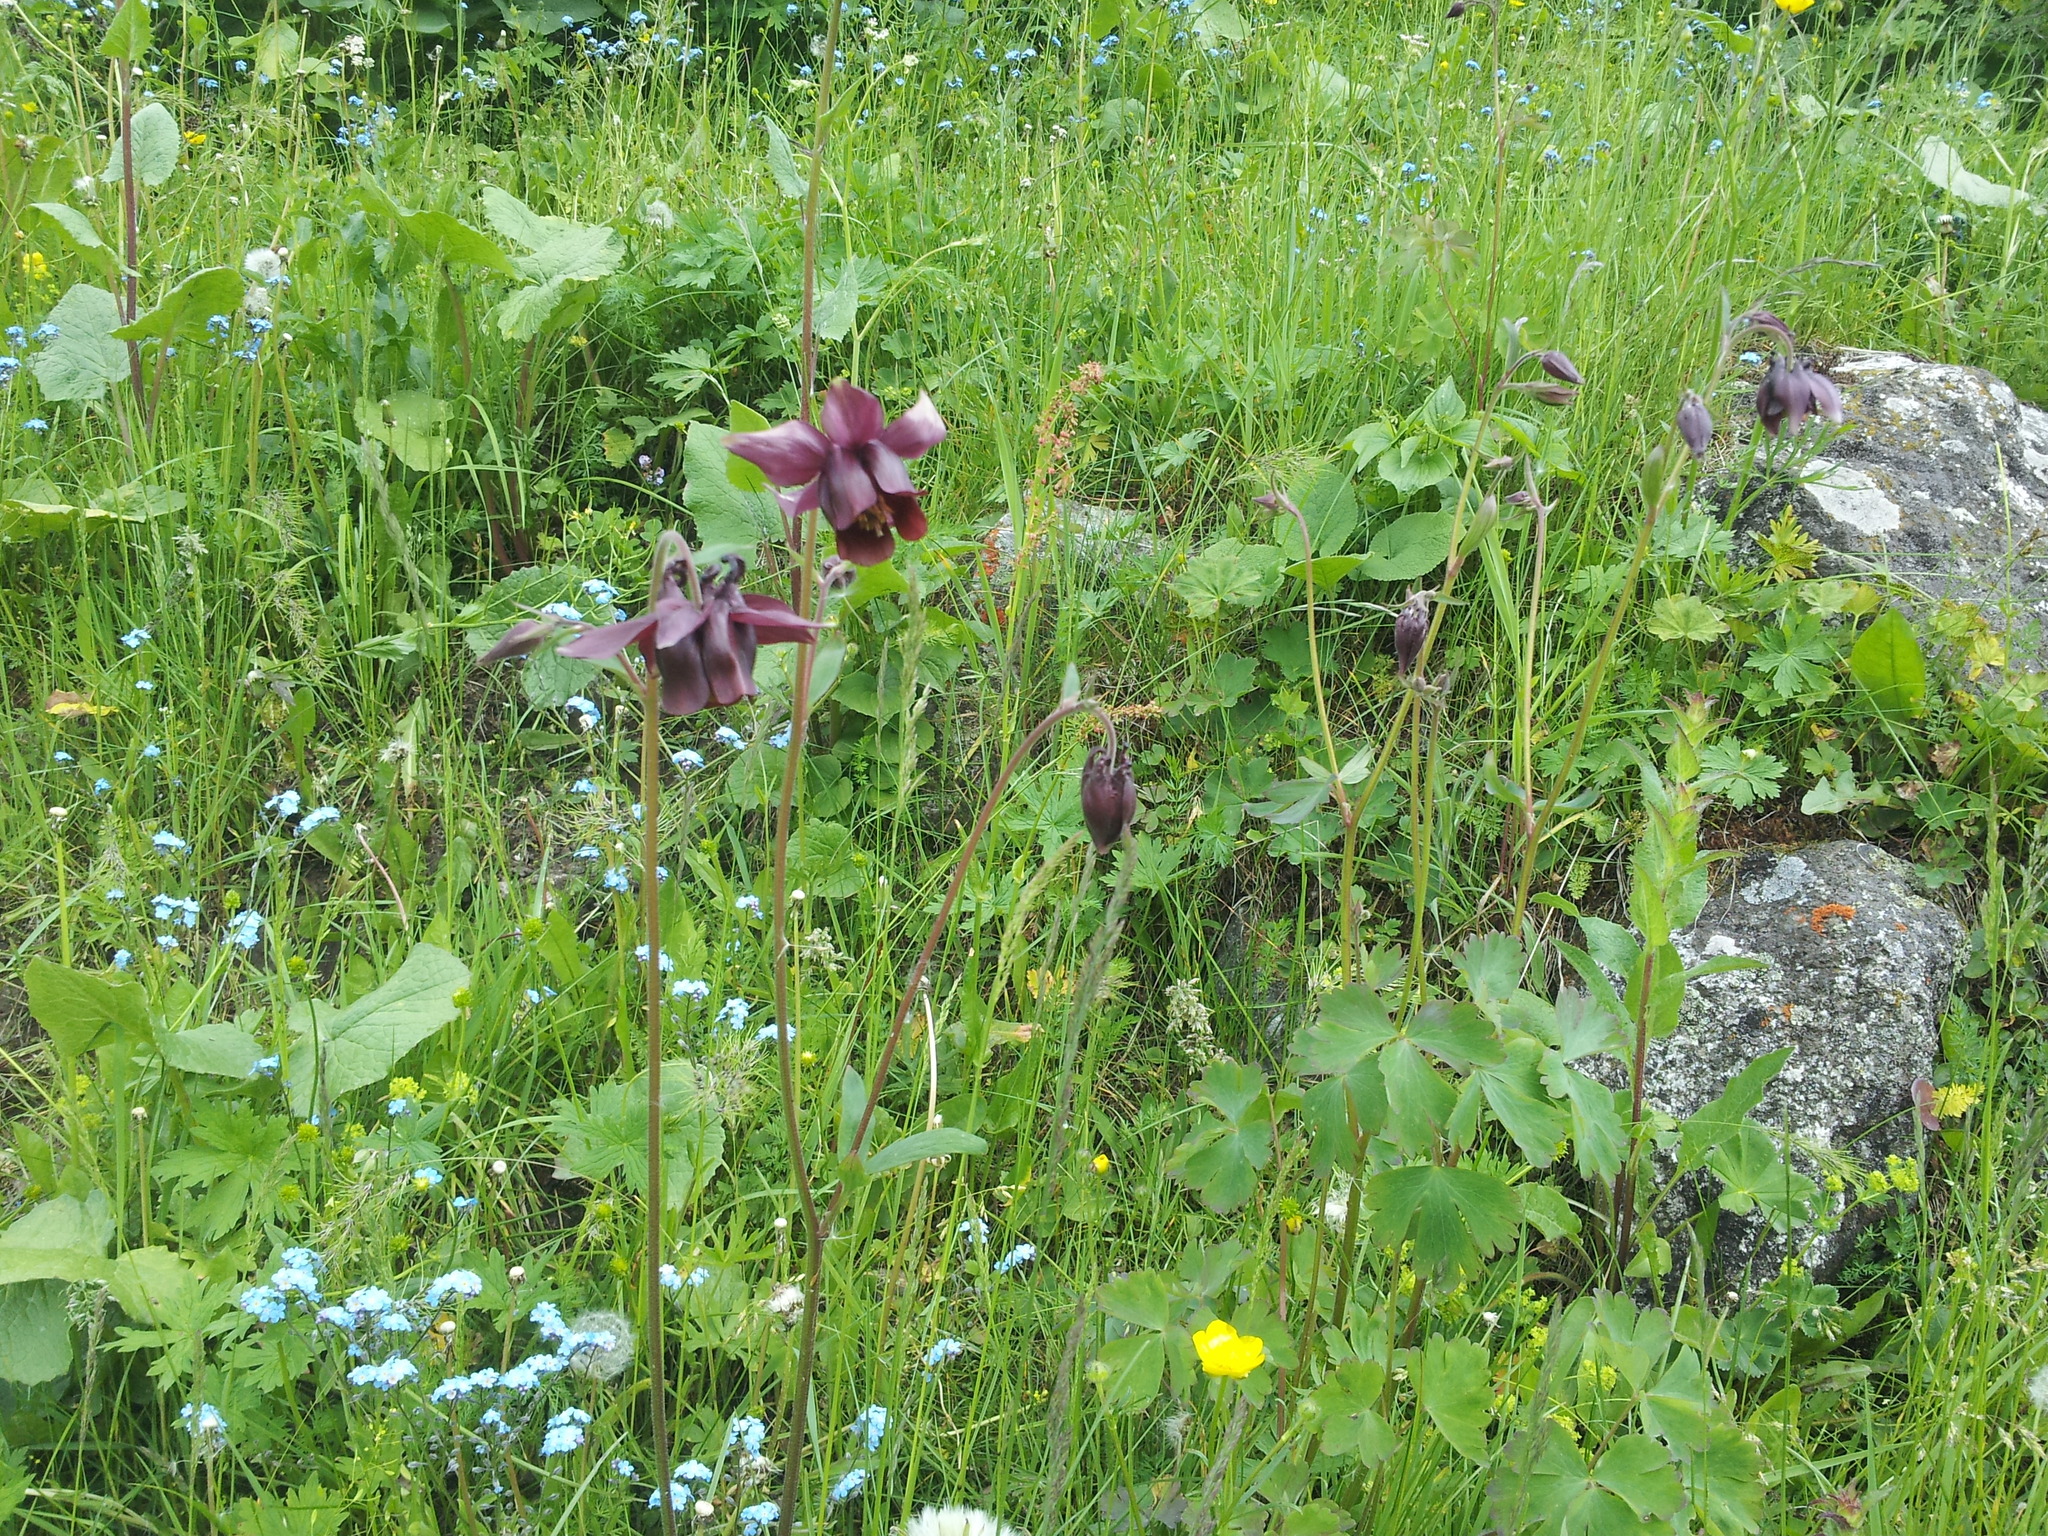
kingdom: Plantae
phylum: Tracheophyta
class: Magnoliopsida
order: Ranunculales
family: Ranunculaceae
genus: Aquilegia
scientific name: Aquilegia atrovinosa
